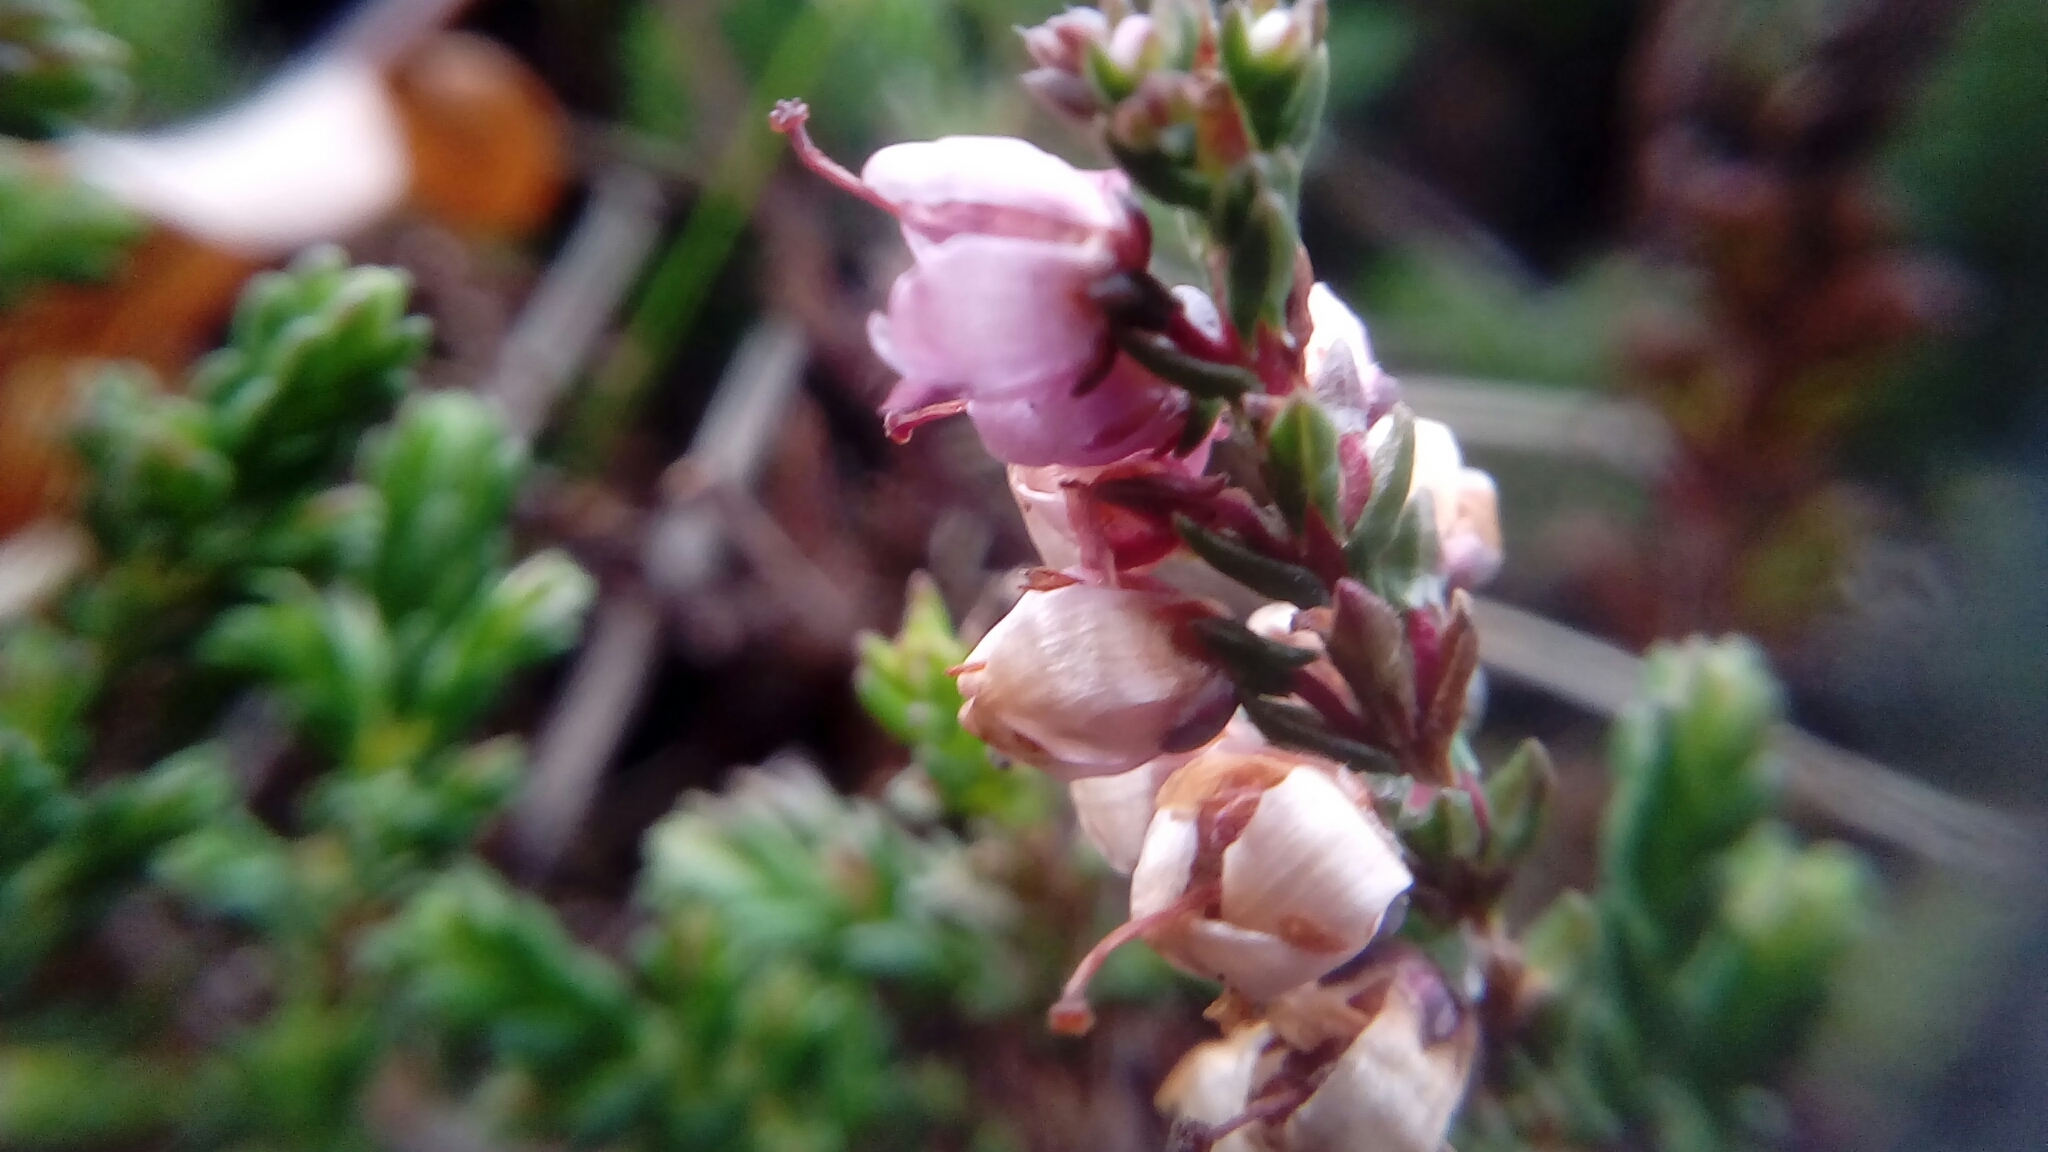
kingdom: Plantae
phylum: Tracheophyta
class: Magnoliopsida
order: Ericales
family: Ericaceae
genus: Calluna
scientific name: Calluna vulgaris
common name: Heather
